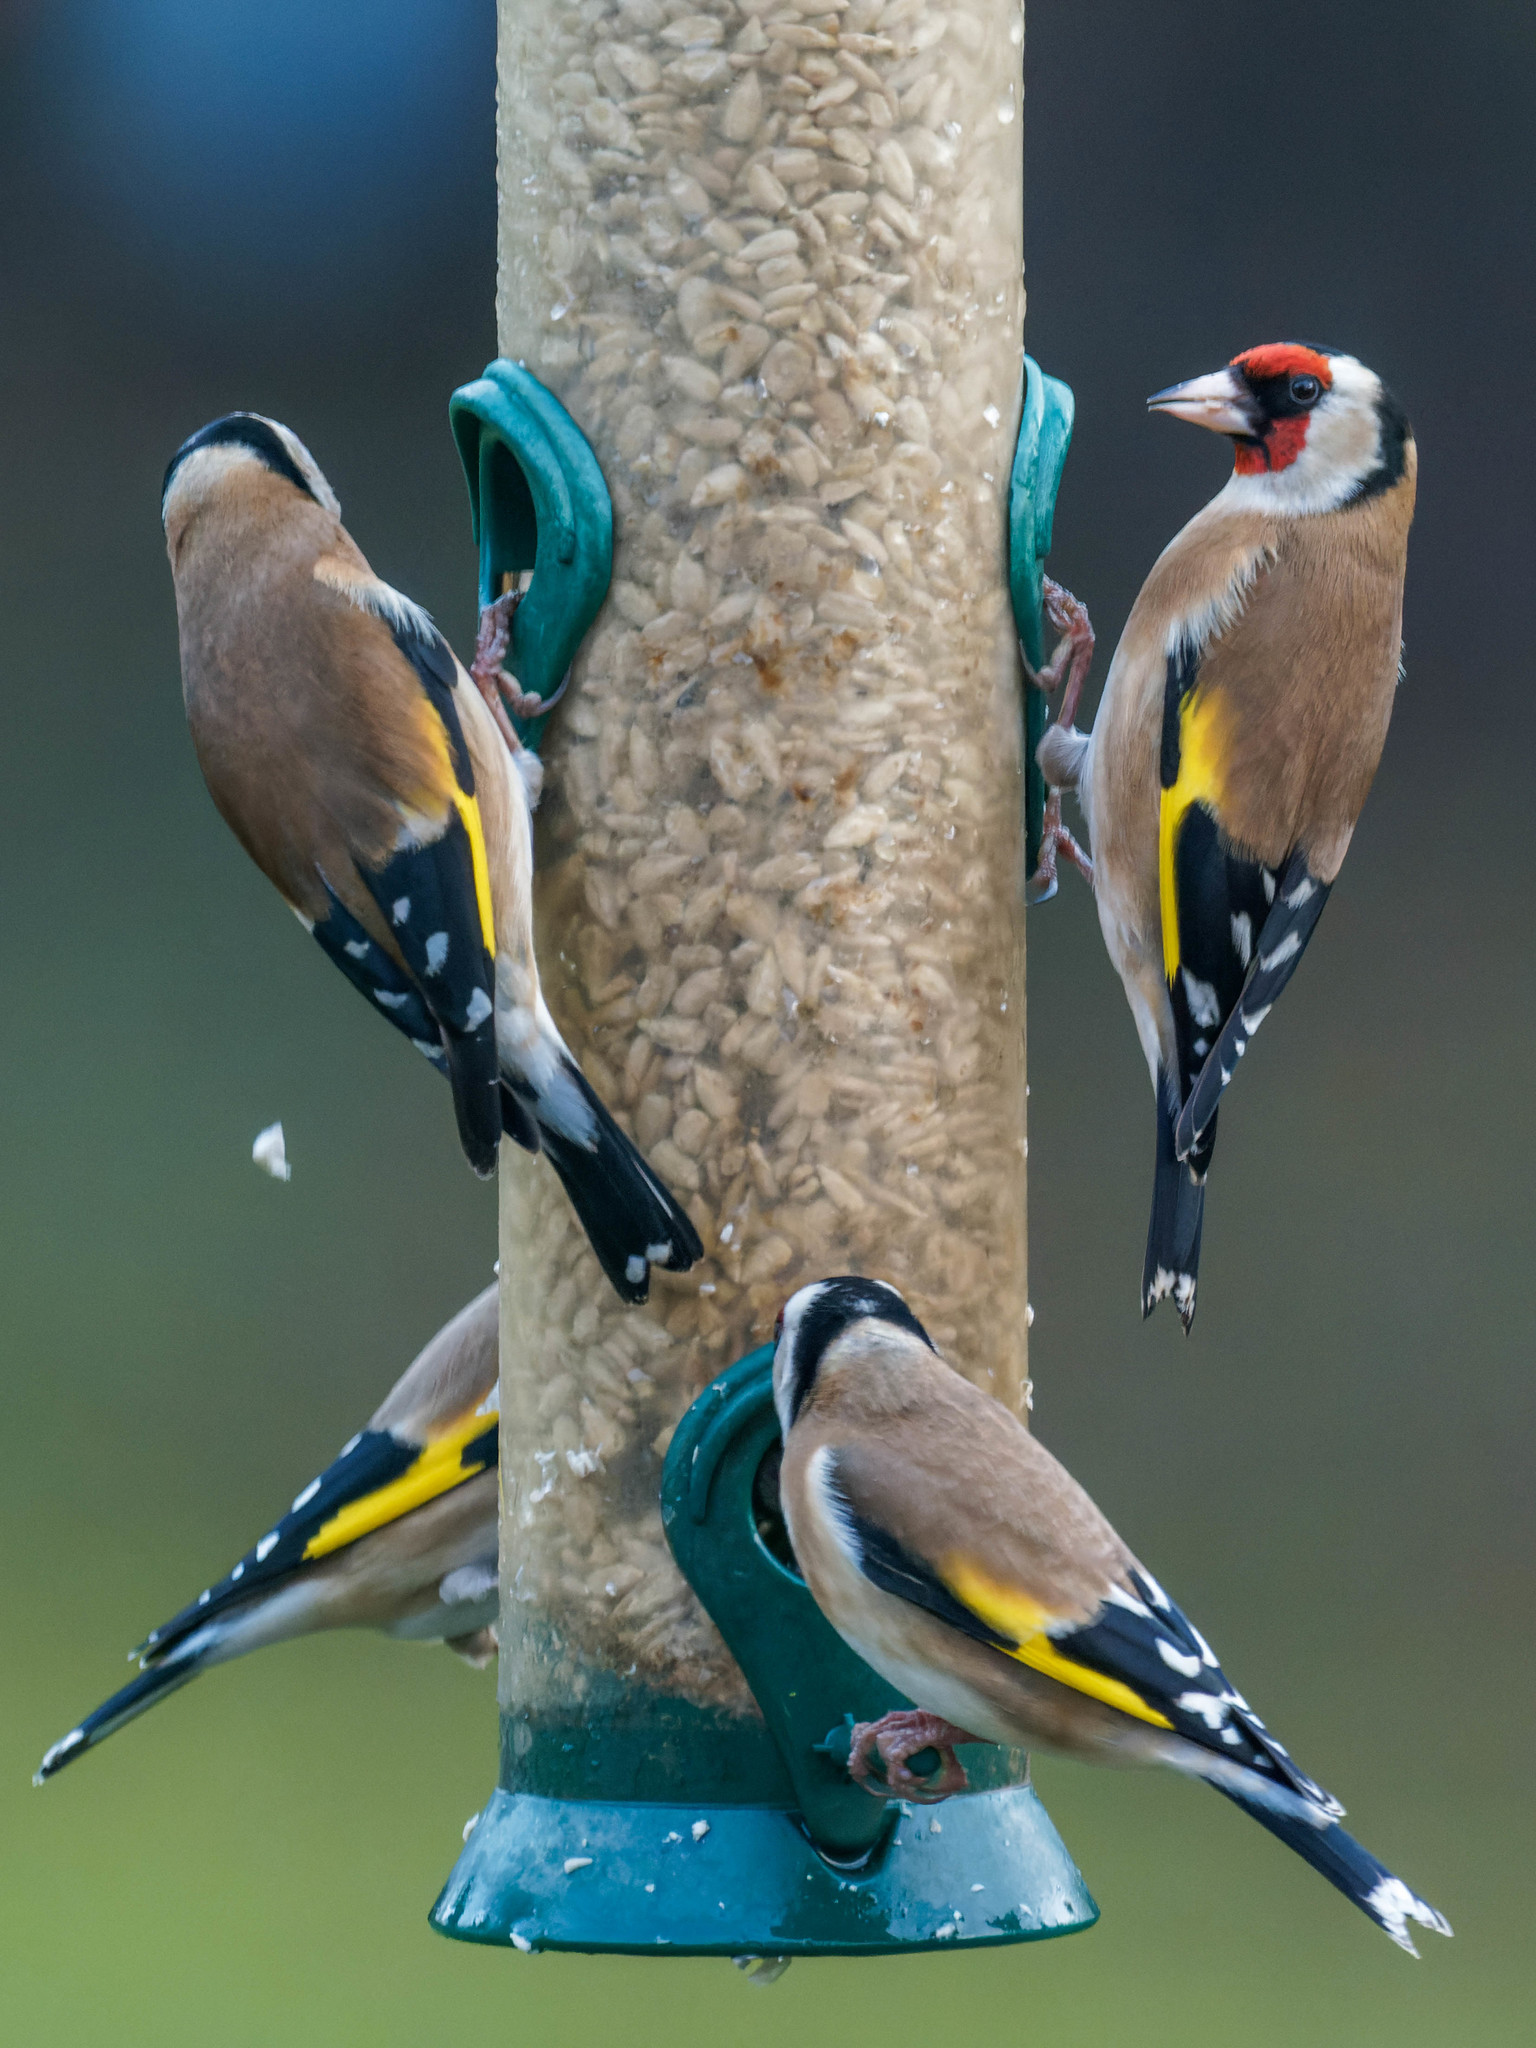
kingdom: Animalia
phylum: Chordata
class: Aves
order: Passeriformes
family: Fringillidae
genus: Carduelis
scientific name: Carduelis carduelis
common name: European goldfinch
